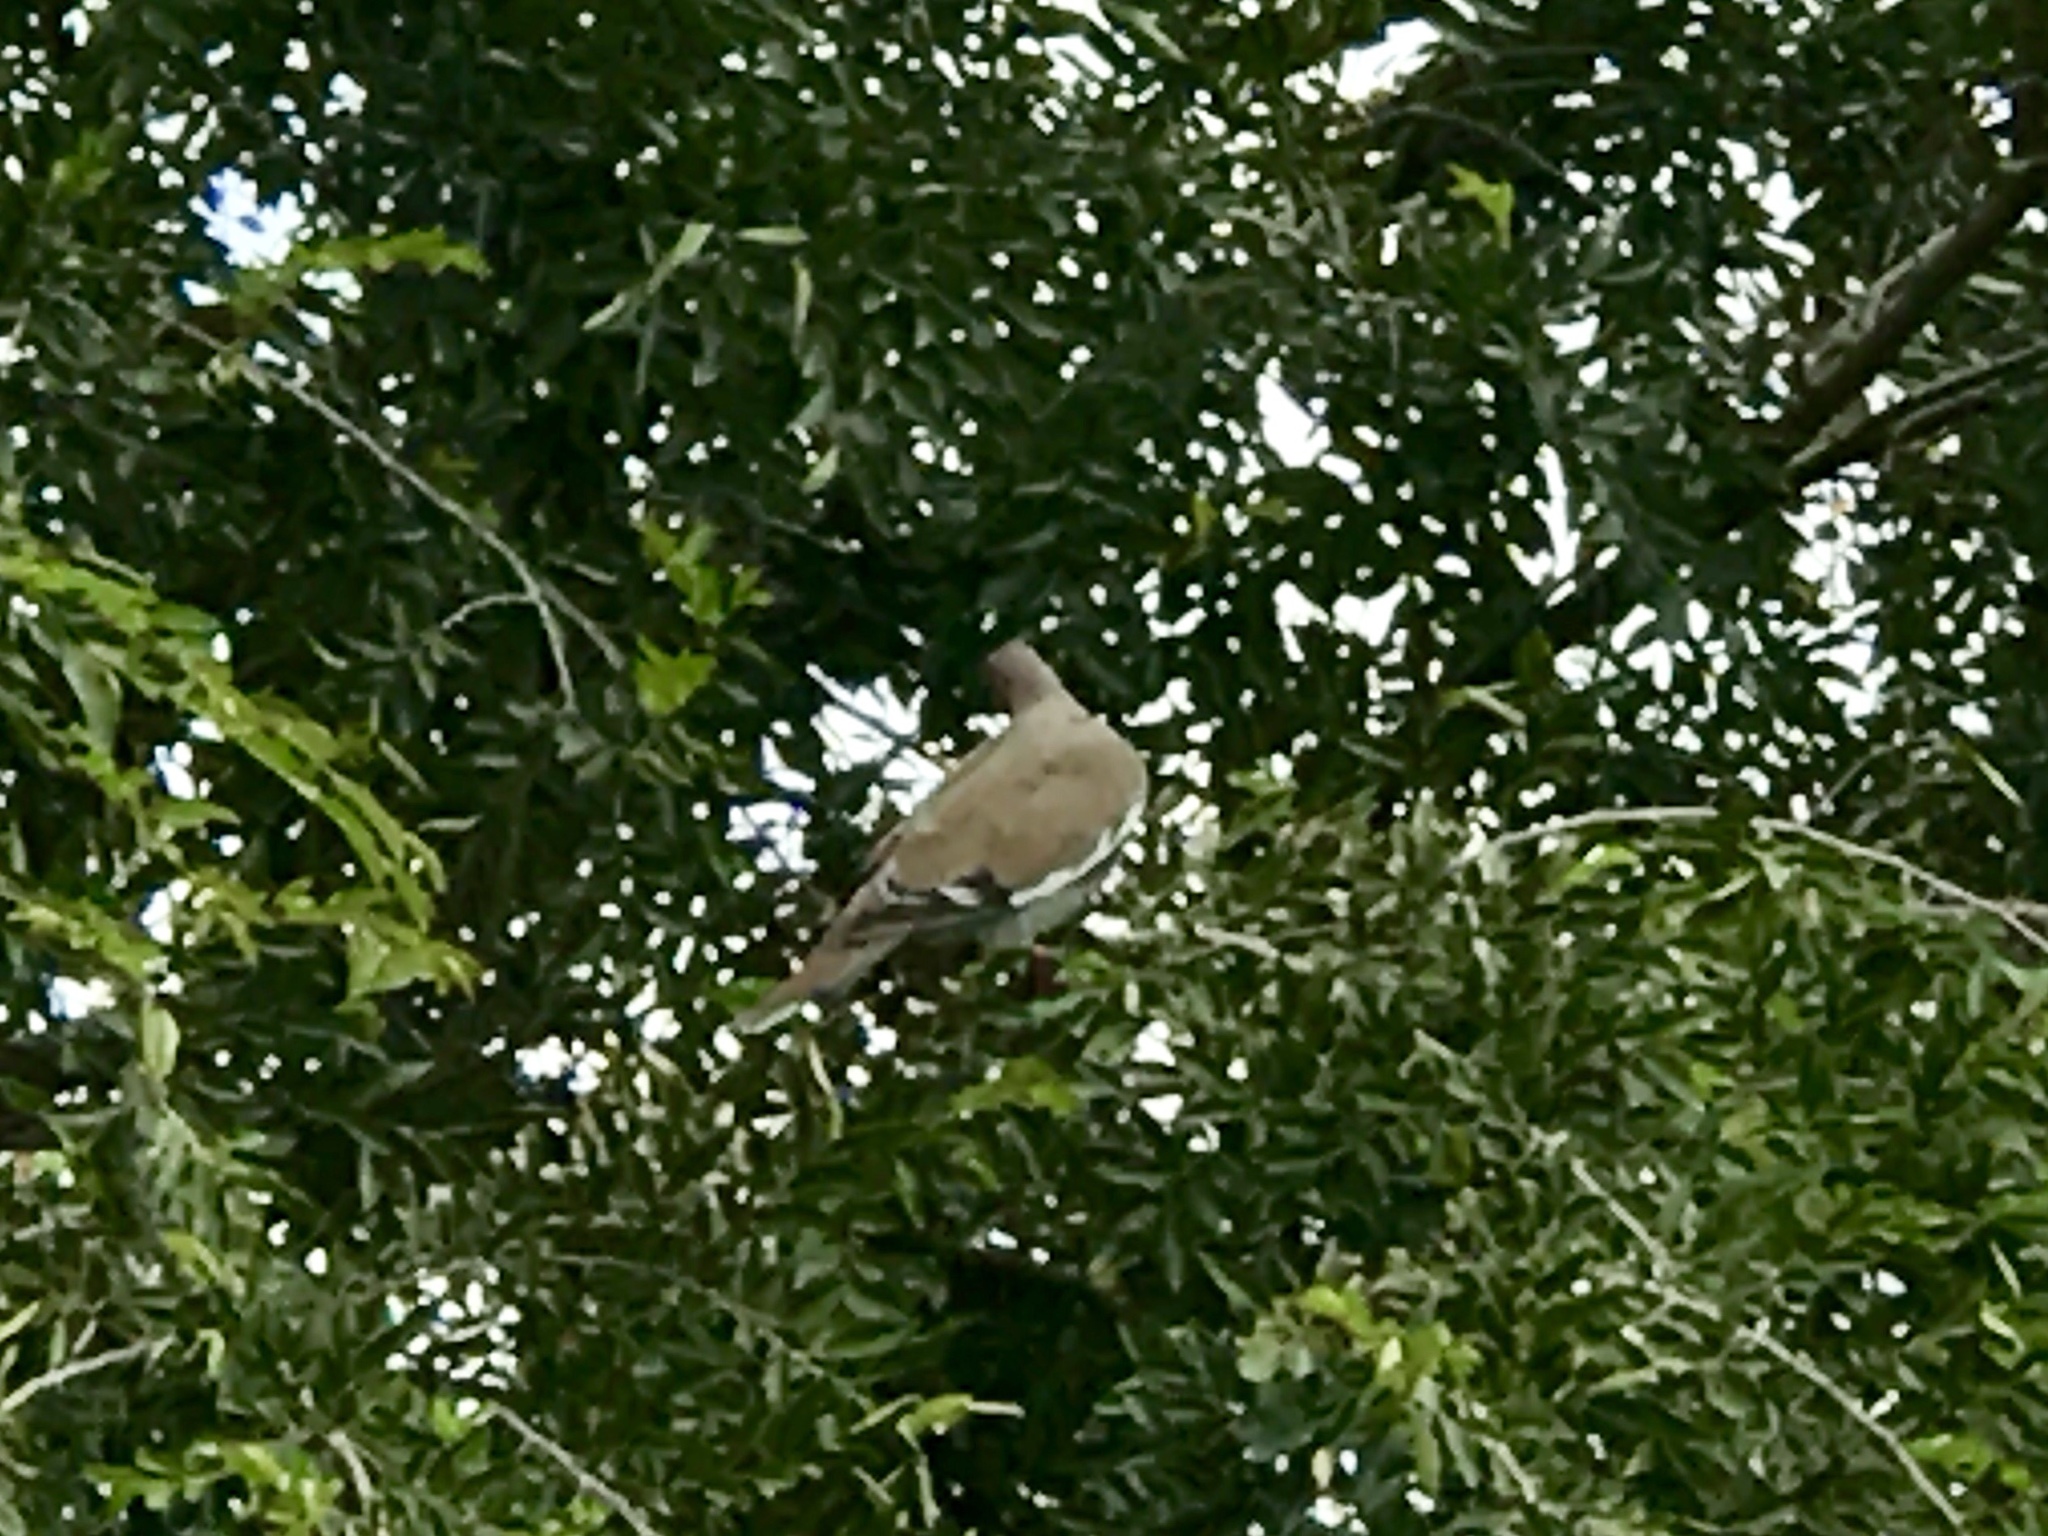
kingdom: Animalia
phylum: Chordata
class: Aves
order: Columbiformes
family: Columbidae
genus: Zenaida
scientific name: Zenaida asiatica
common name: White-winged dove
